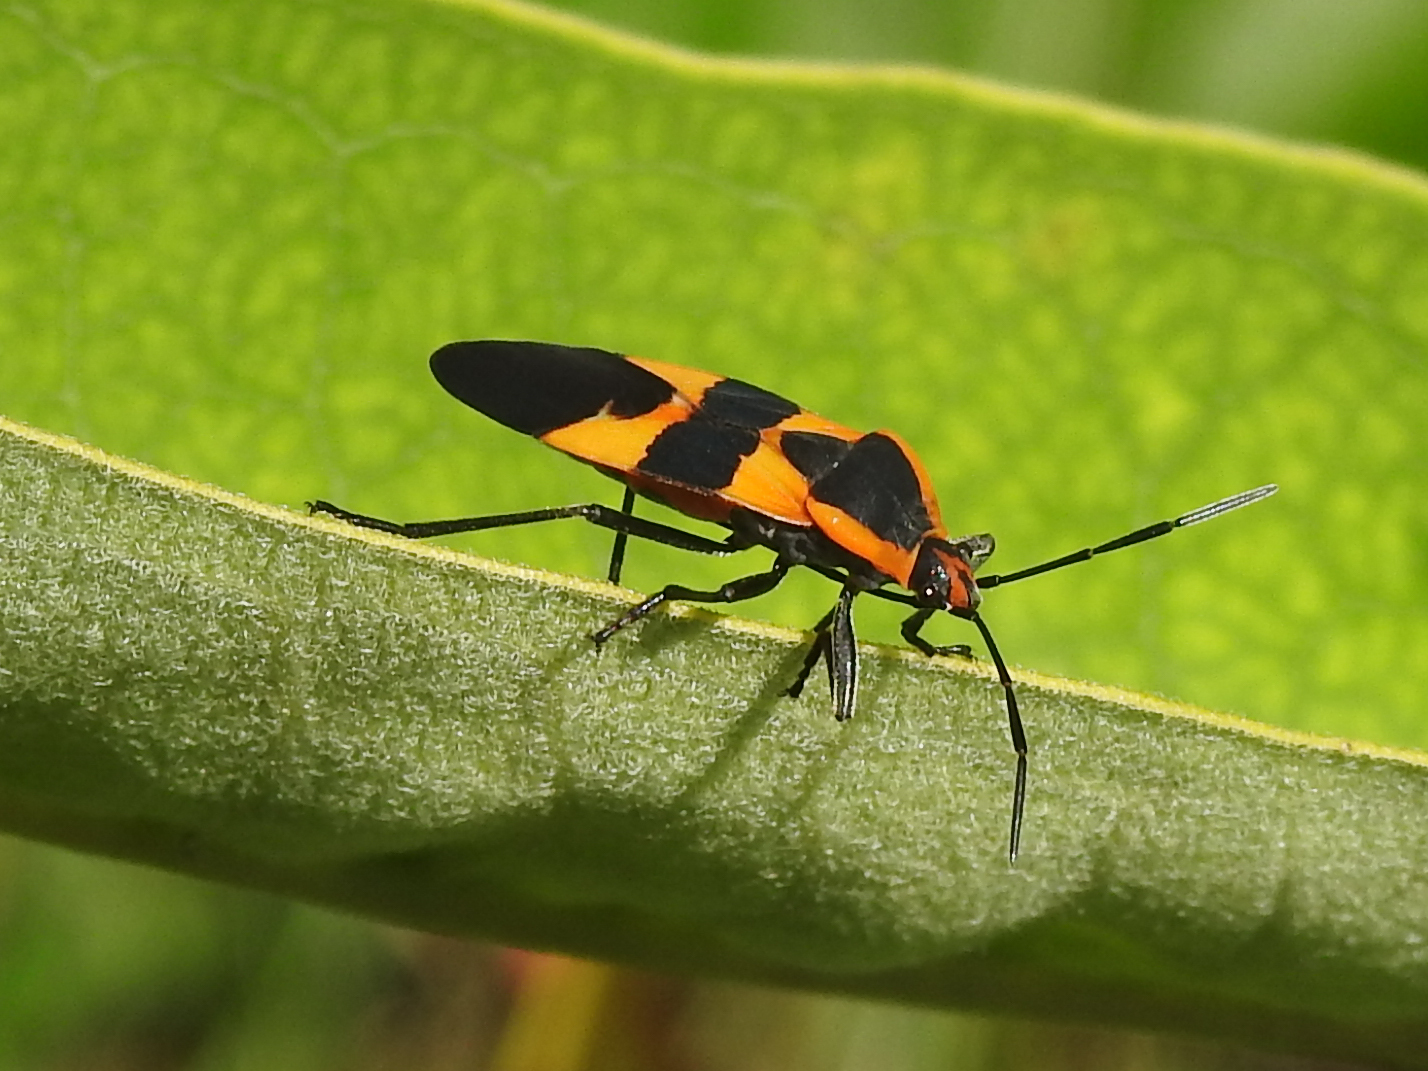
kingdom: Animalia
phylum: Arthropoda
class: Insecta
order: Hemiptera
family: Lygaeidae
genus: Oncopeltus
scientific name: Oncopeltus fasciatus
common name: Large milkweed bug
